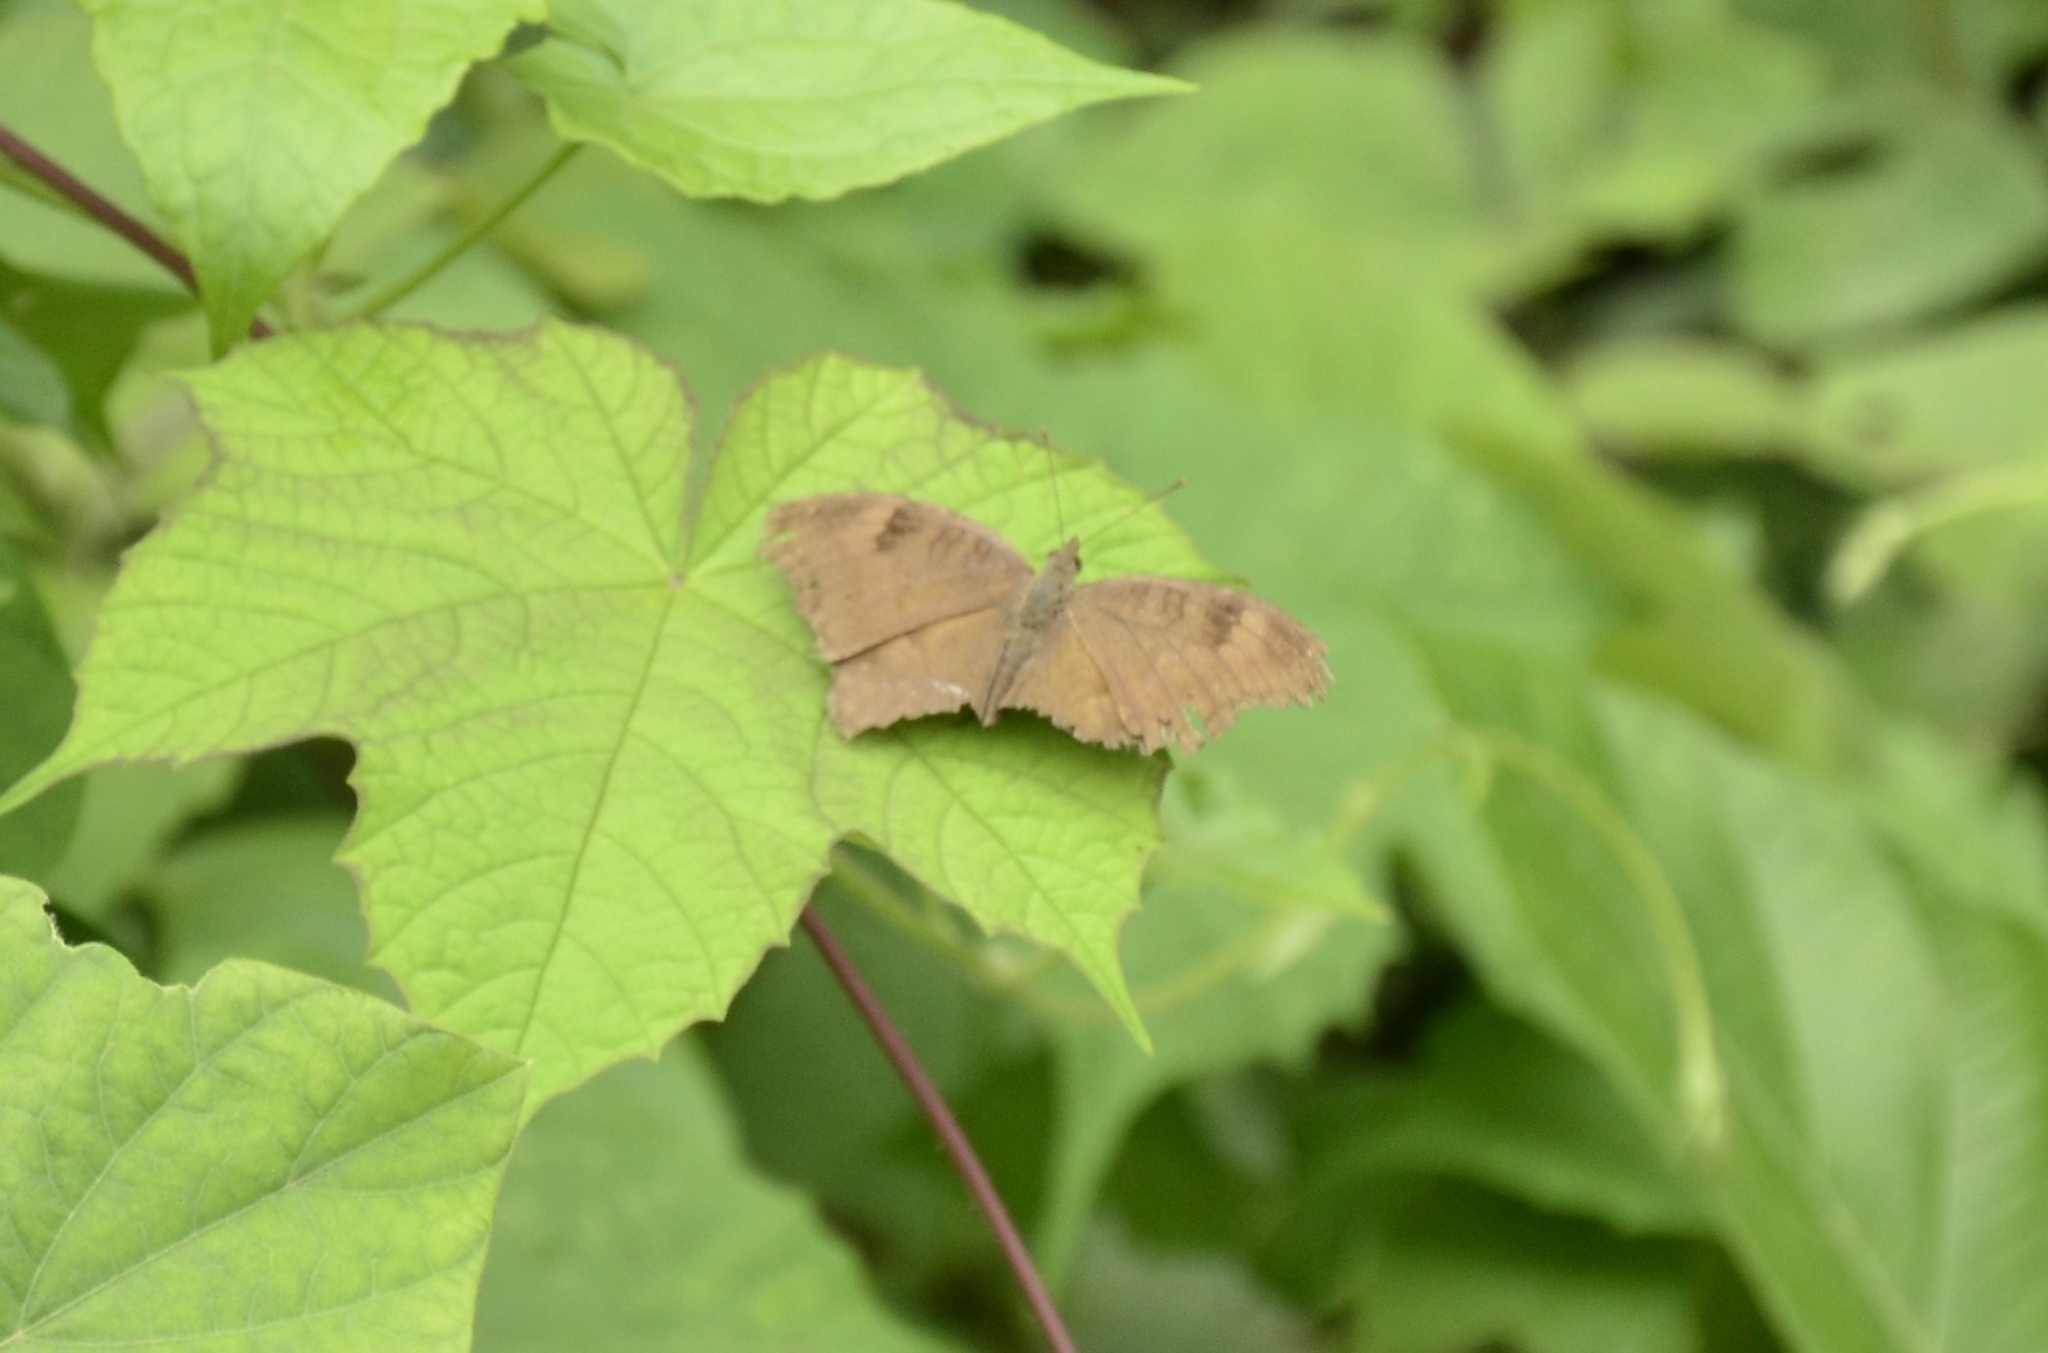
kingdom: Animalia
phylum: Arthropoda
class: Insecta
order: Lepidoptera
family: Nymphalidae
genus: Junonia
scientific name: Junonia iphita
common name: Chocolate pansy
